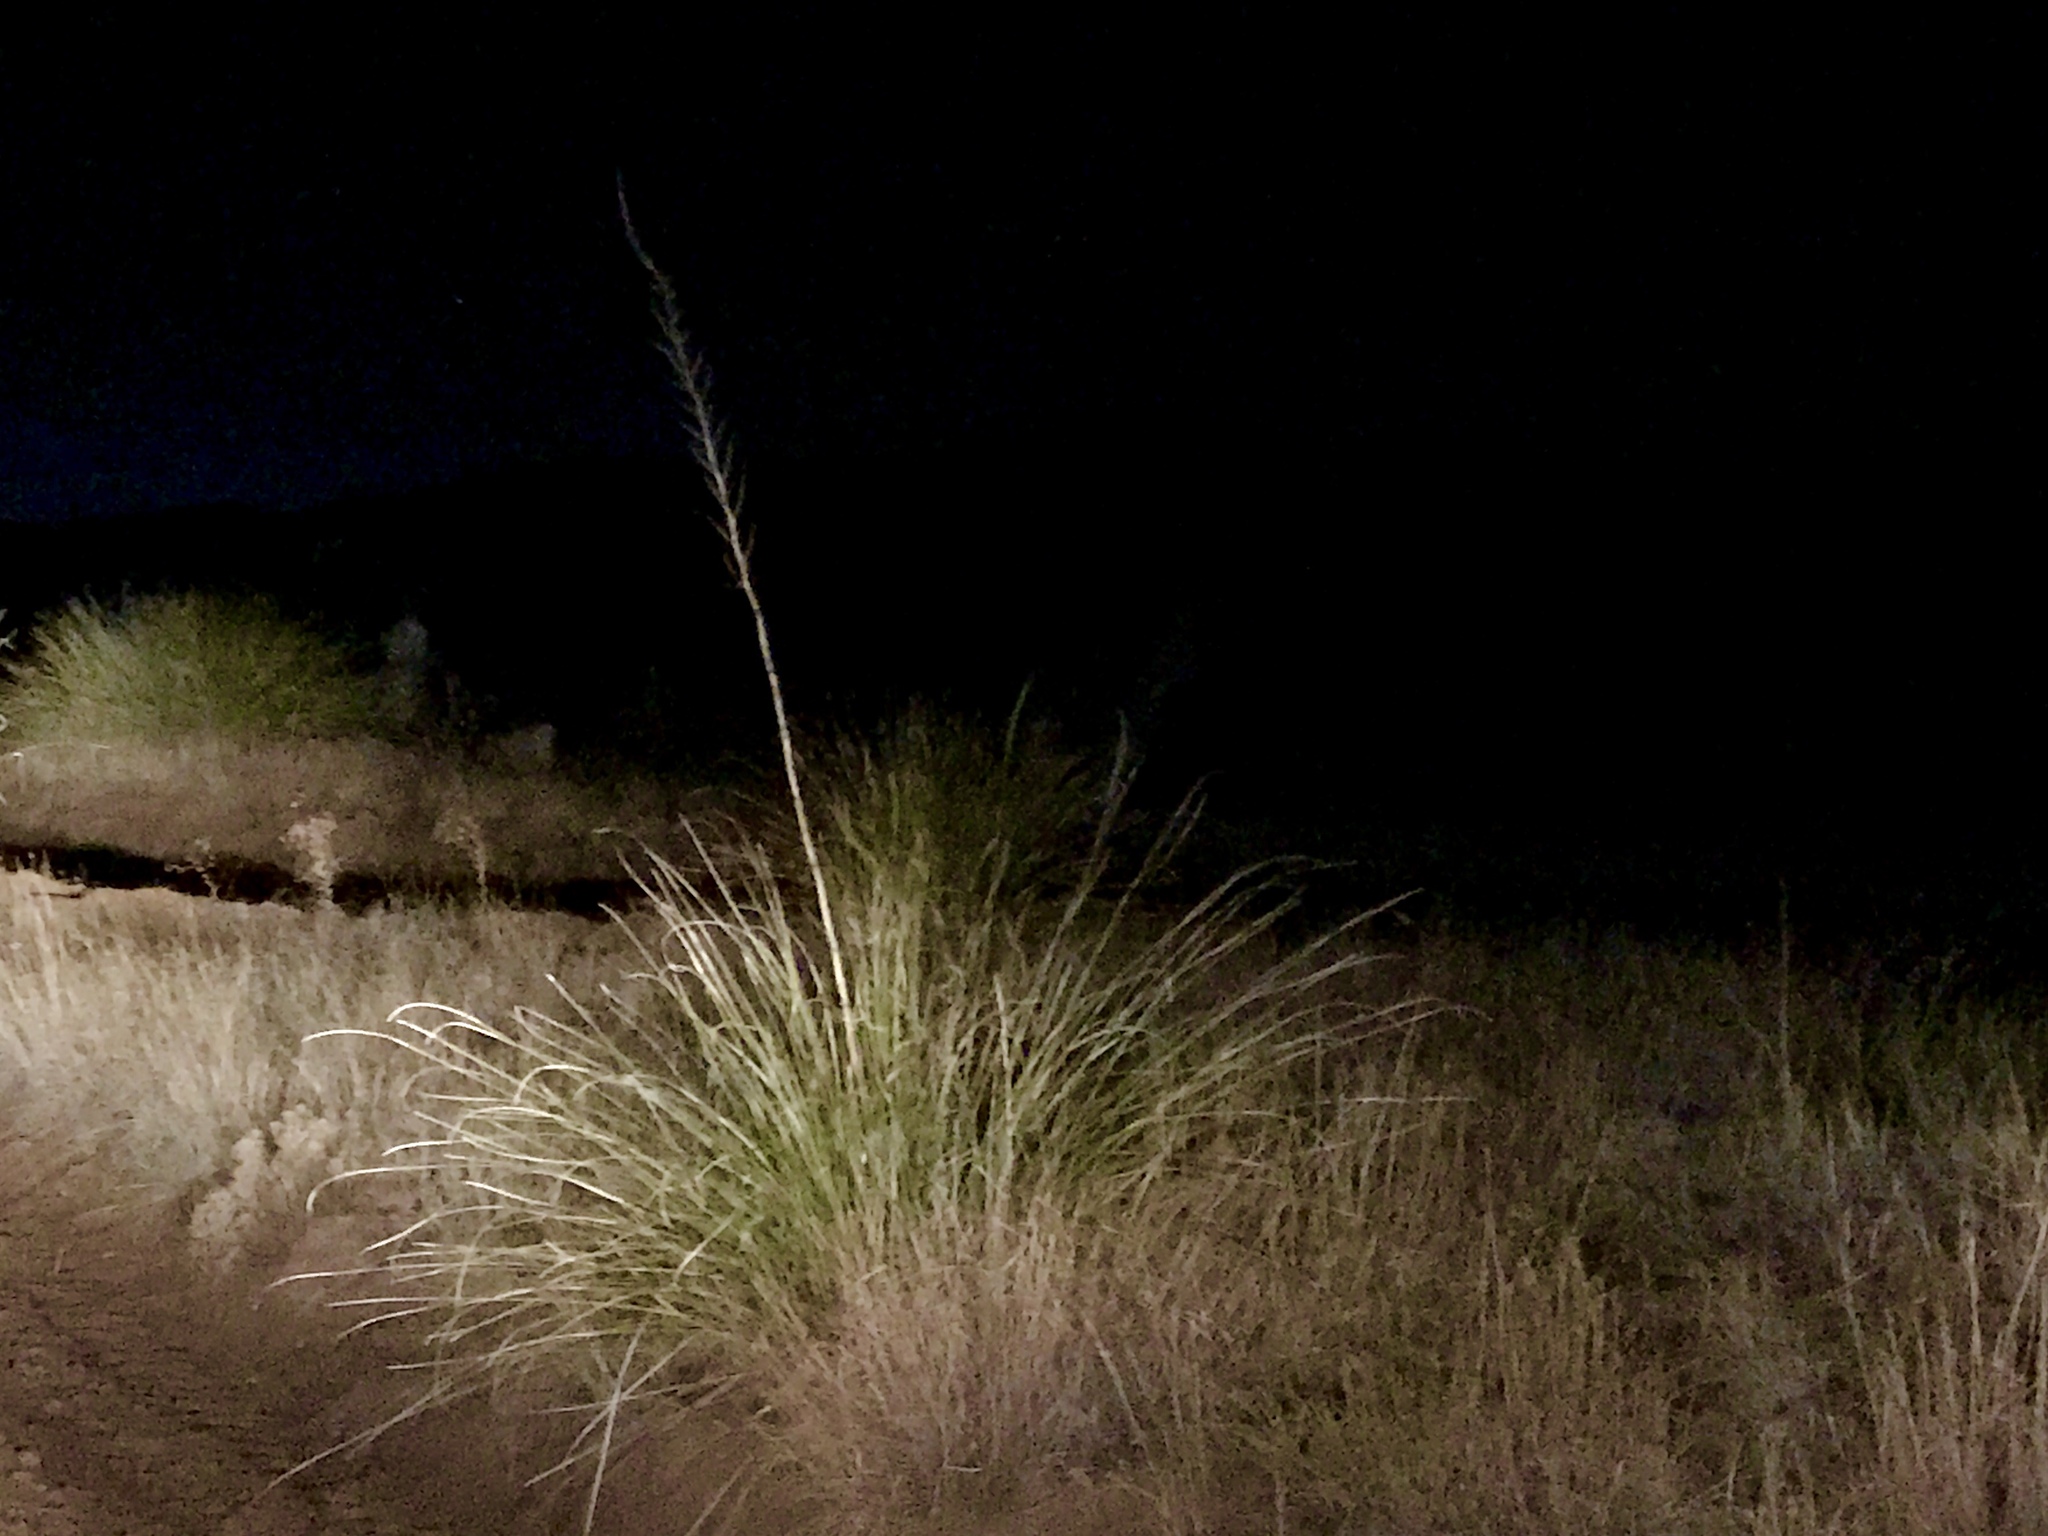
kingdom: Plantae
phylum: Tracheophyta
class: Liliopsida
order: Asparagales
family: Asparagaceae
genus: Nolina
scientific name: Nolina microcarpa
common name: Bear-grass
